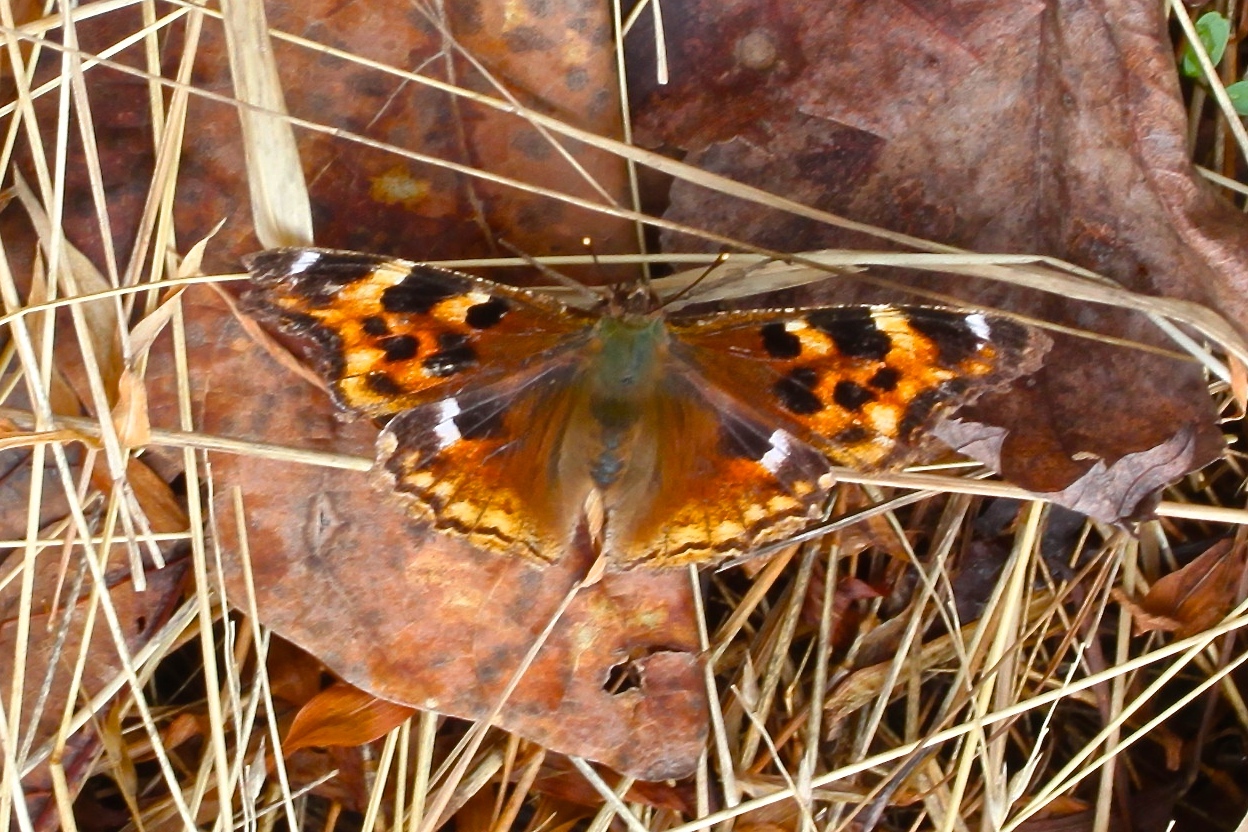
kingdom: Animalia
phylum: Arthropoda
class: Insecta
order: Lepidoptera
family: Nymphalidae
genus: Polygonia
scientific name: Polygonia vaualbum
